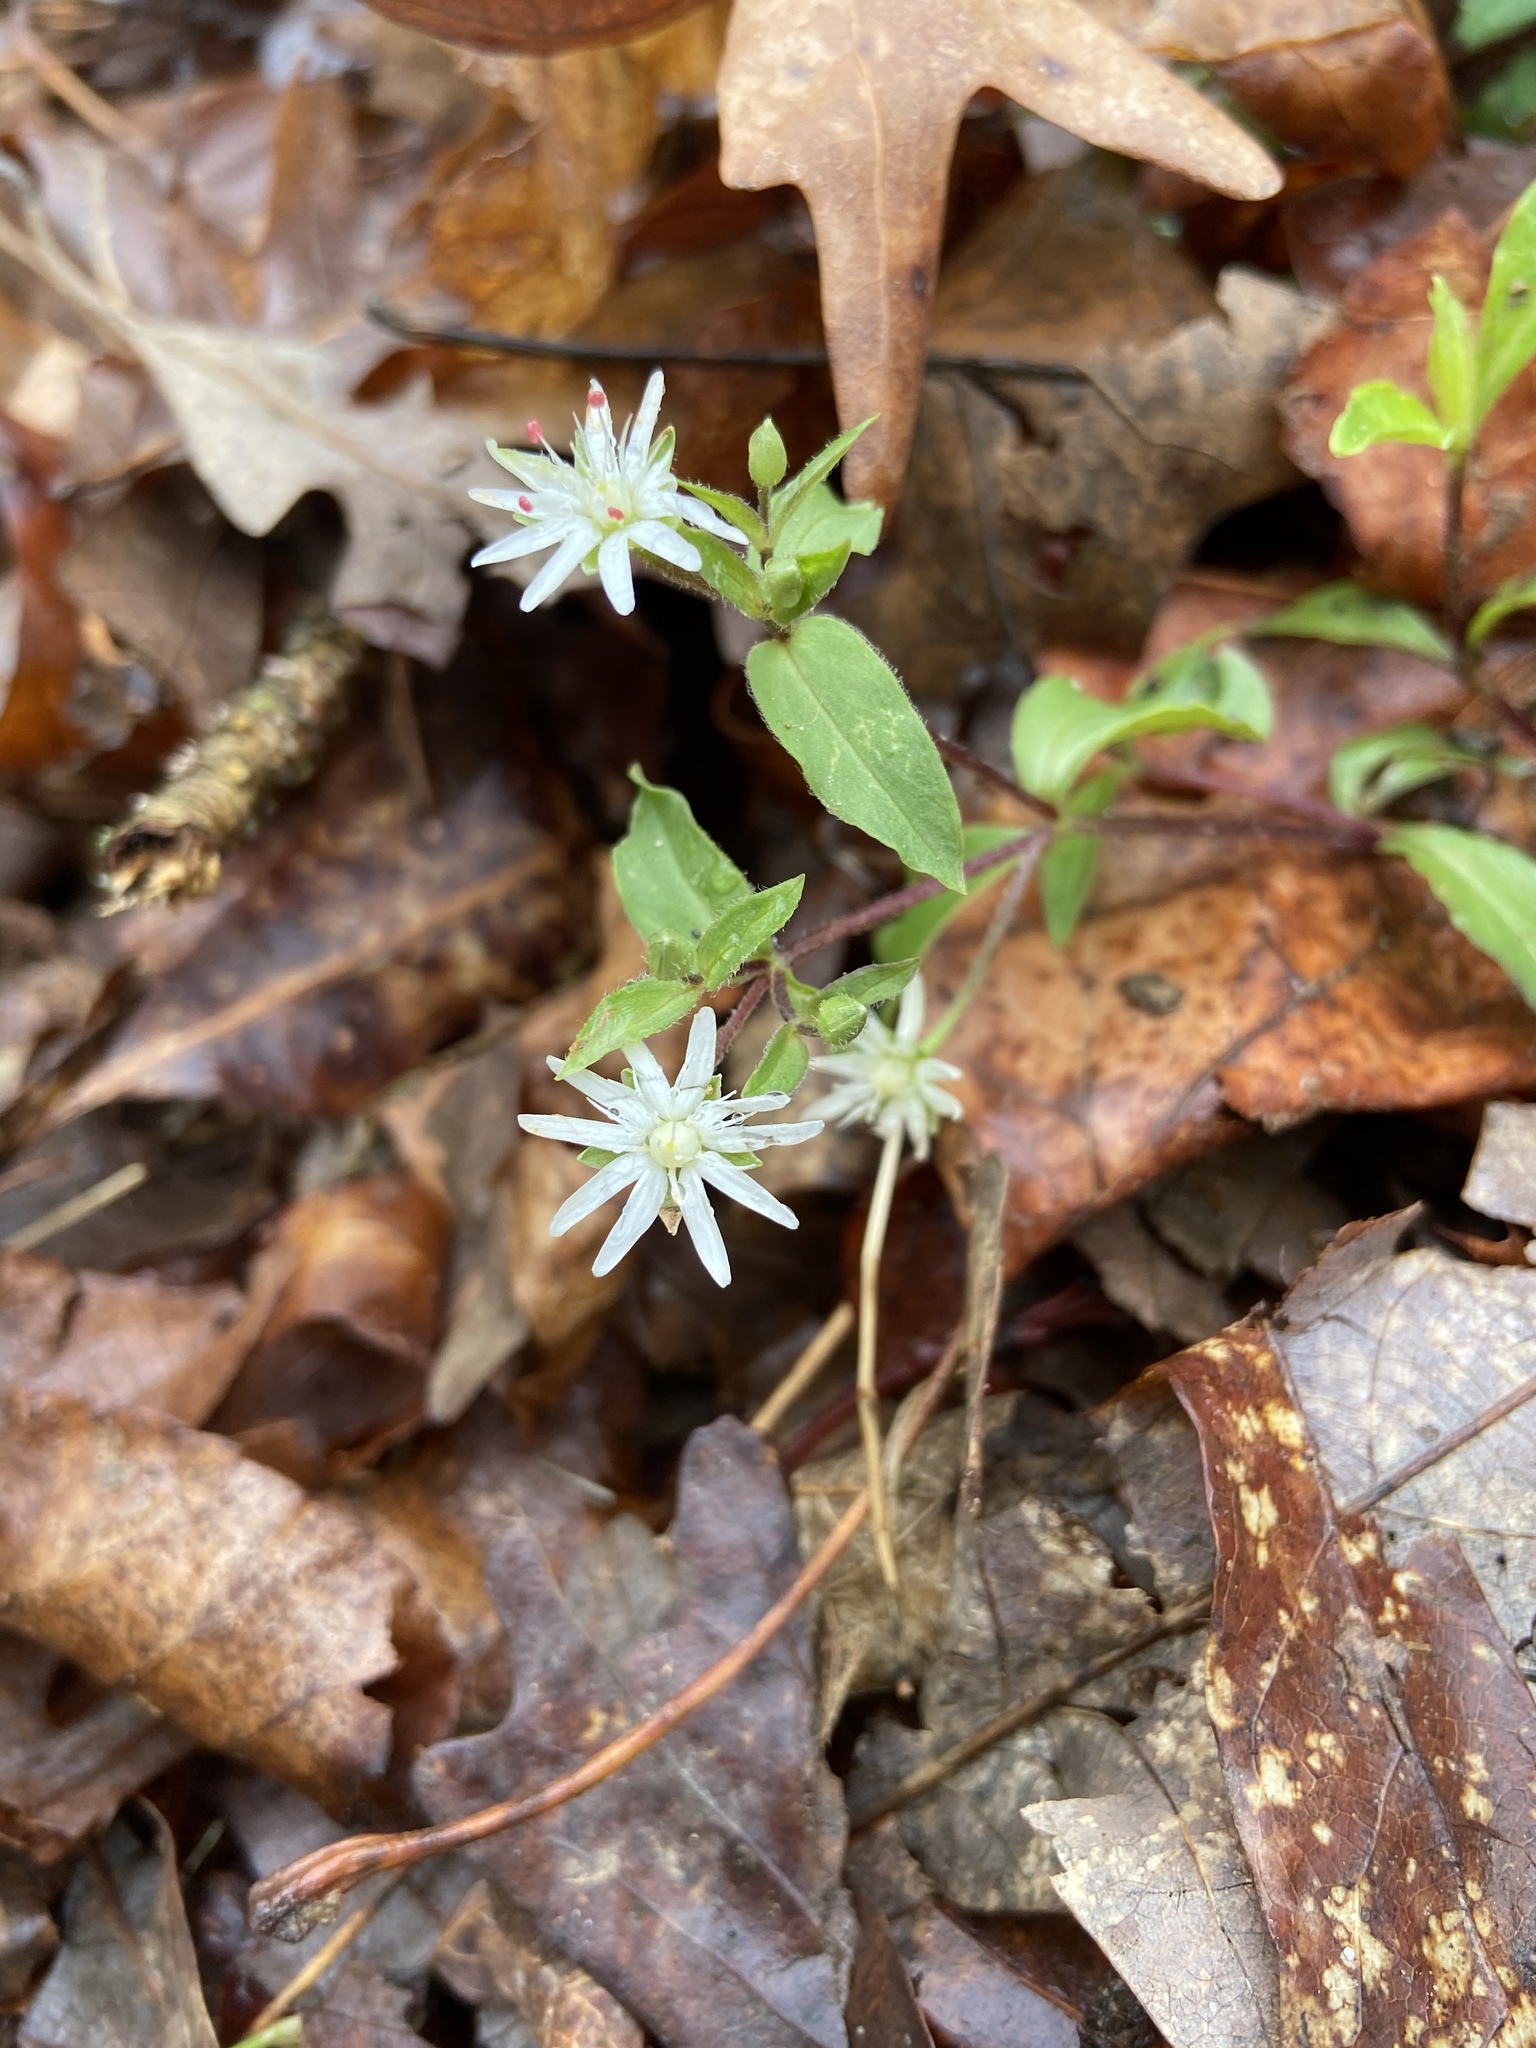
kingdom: Plantae
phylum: Tracheophyta
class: Magnoliopsida
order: Caryophyllales
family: Caryophyllaceae
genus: Stellaria
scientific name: Stellaria pubera
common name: Star chickweed
